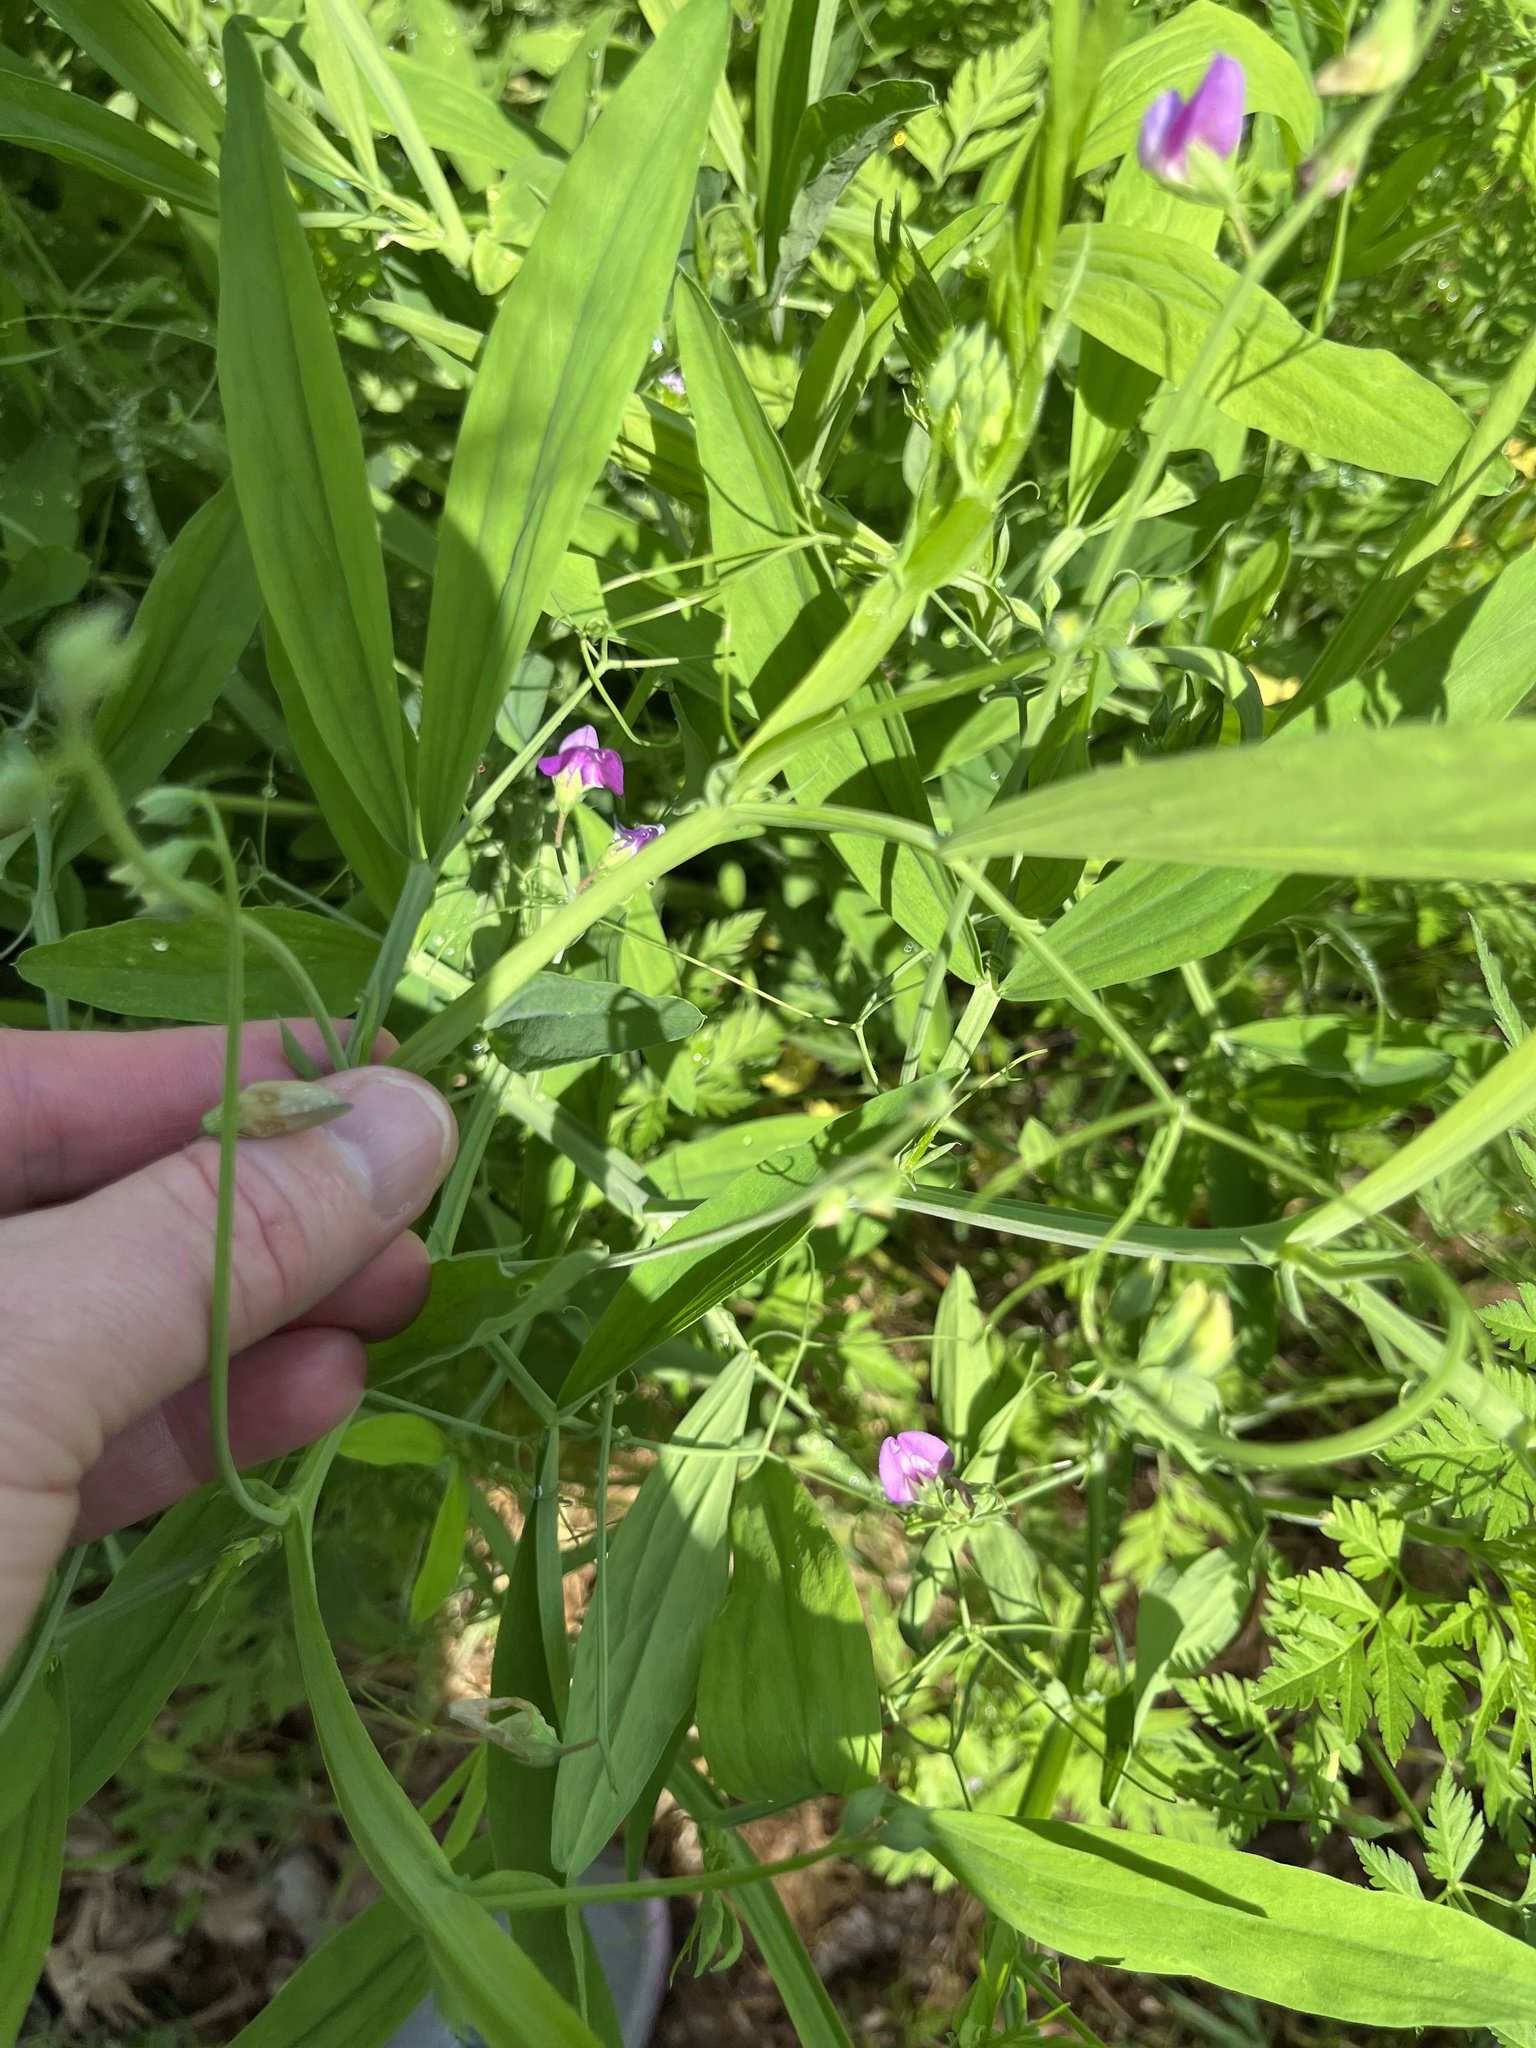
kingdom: Plantae
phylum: Tracheophyta
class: Magnoliopsida
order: Fabales
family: Fabaceae
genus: Lathyrus
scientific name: Lathyrus hirsutus
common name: Hairy vetchling
